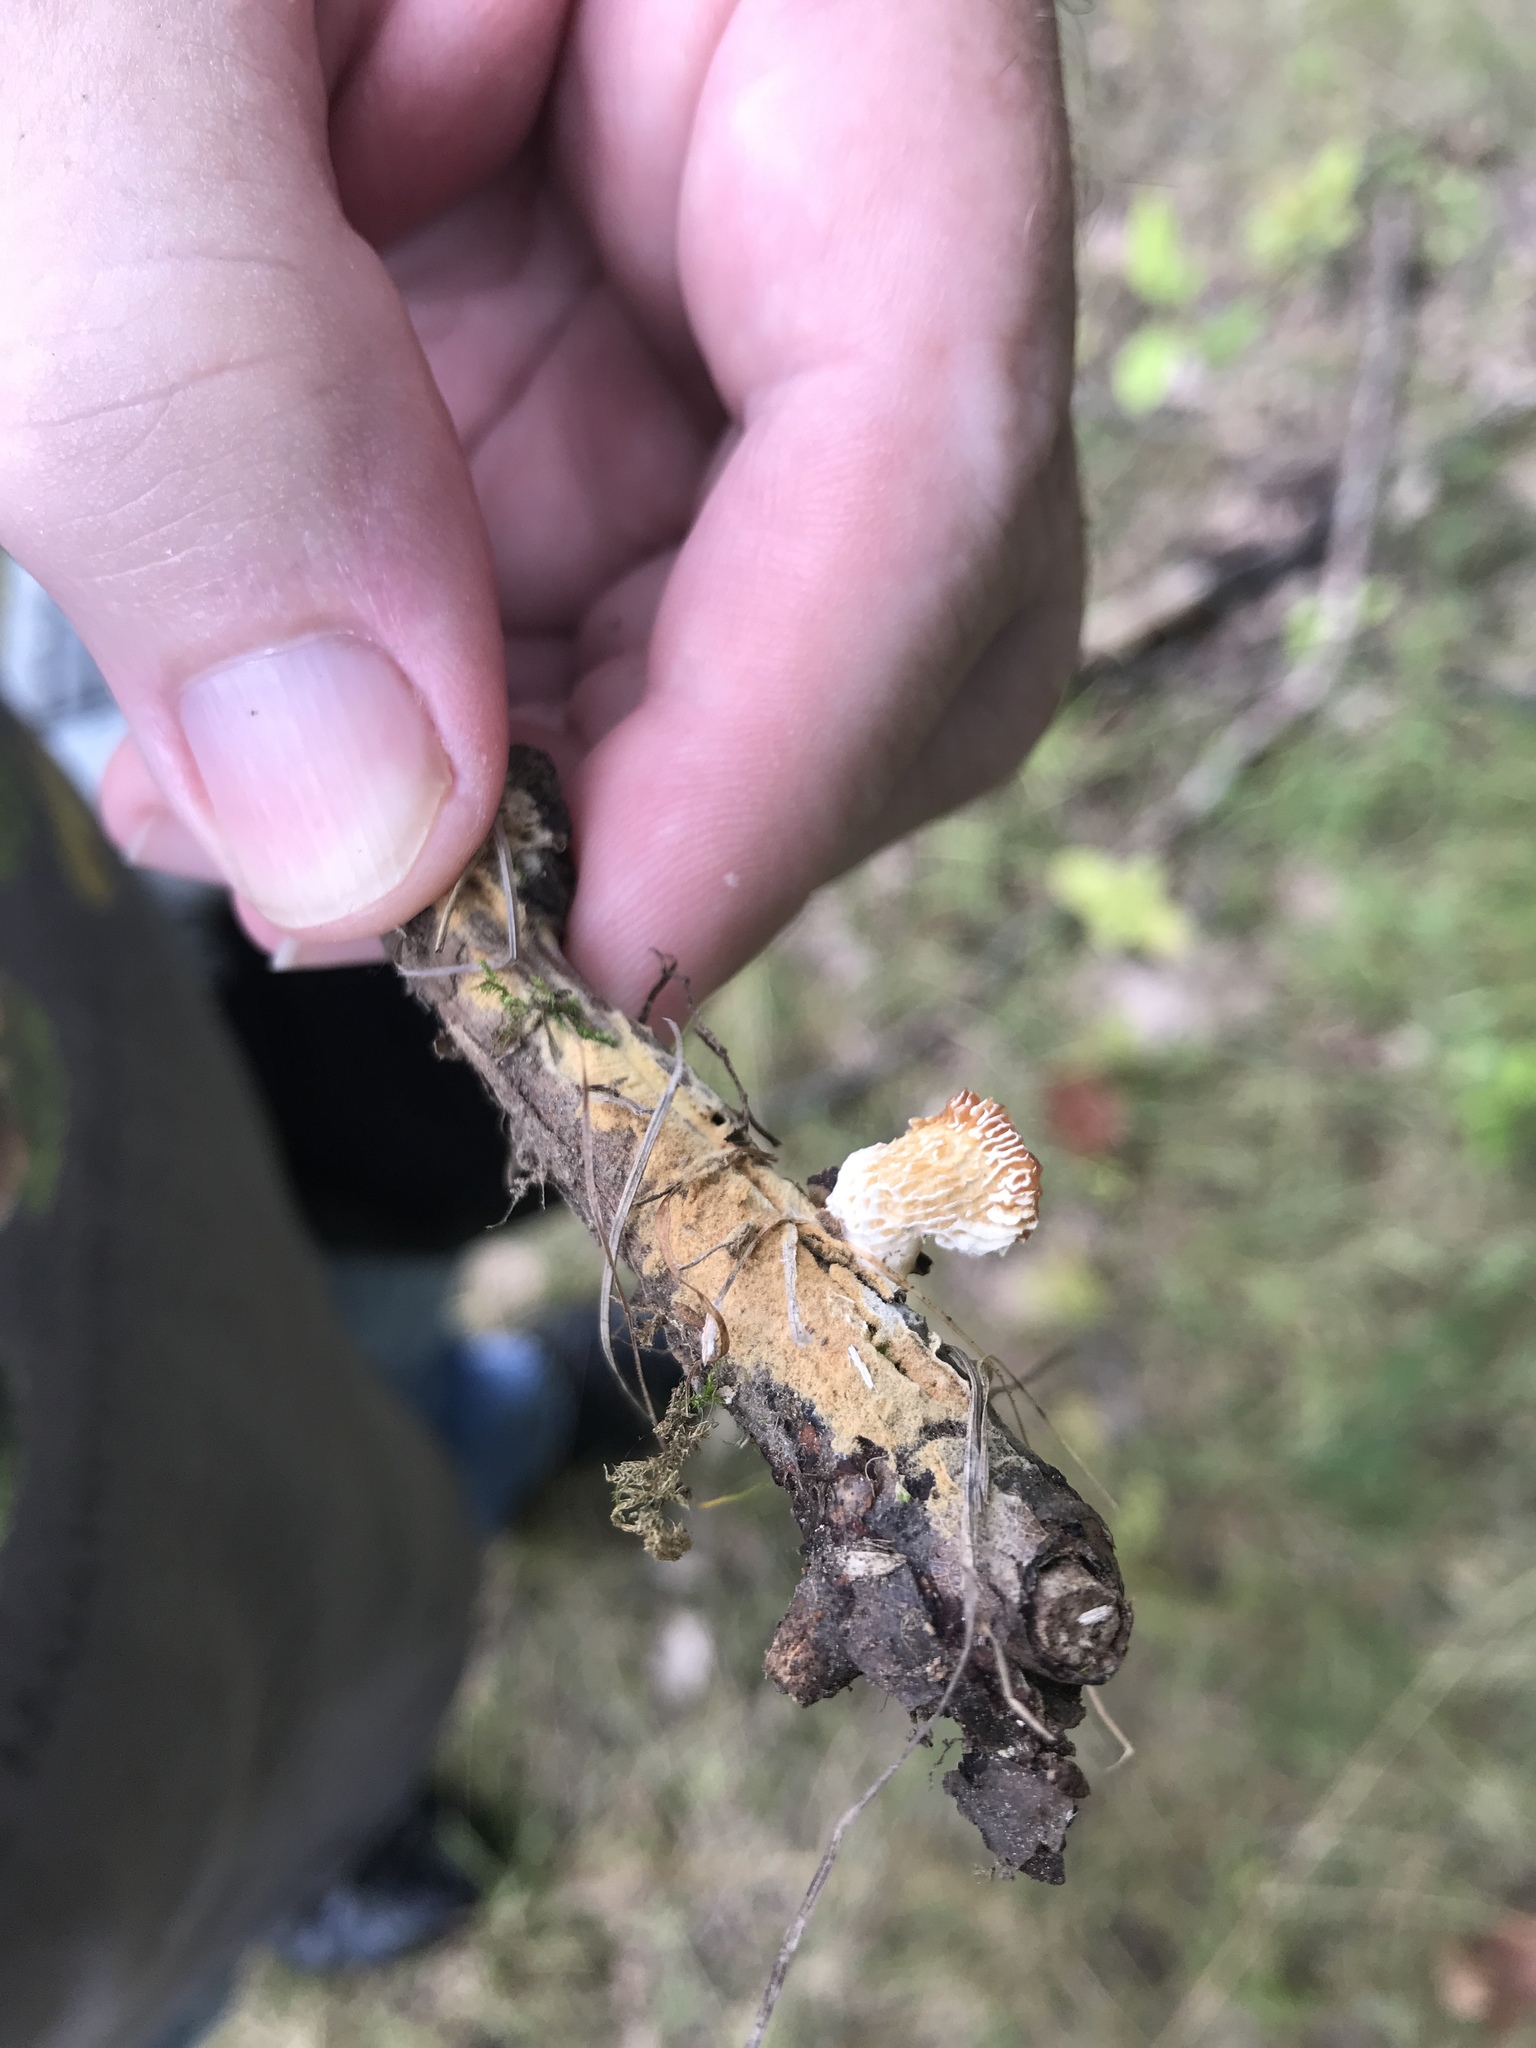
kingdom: Fungi
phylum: Basidiomycota
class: Agaricomycetes
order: Polyporales
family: Polyporaceae
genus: Neofavolus
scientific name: Neofavolus alveolaris
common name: Hexagonal-pored polypore
